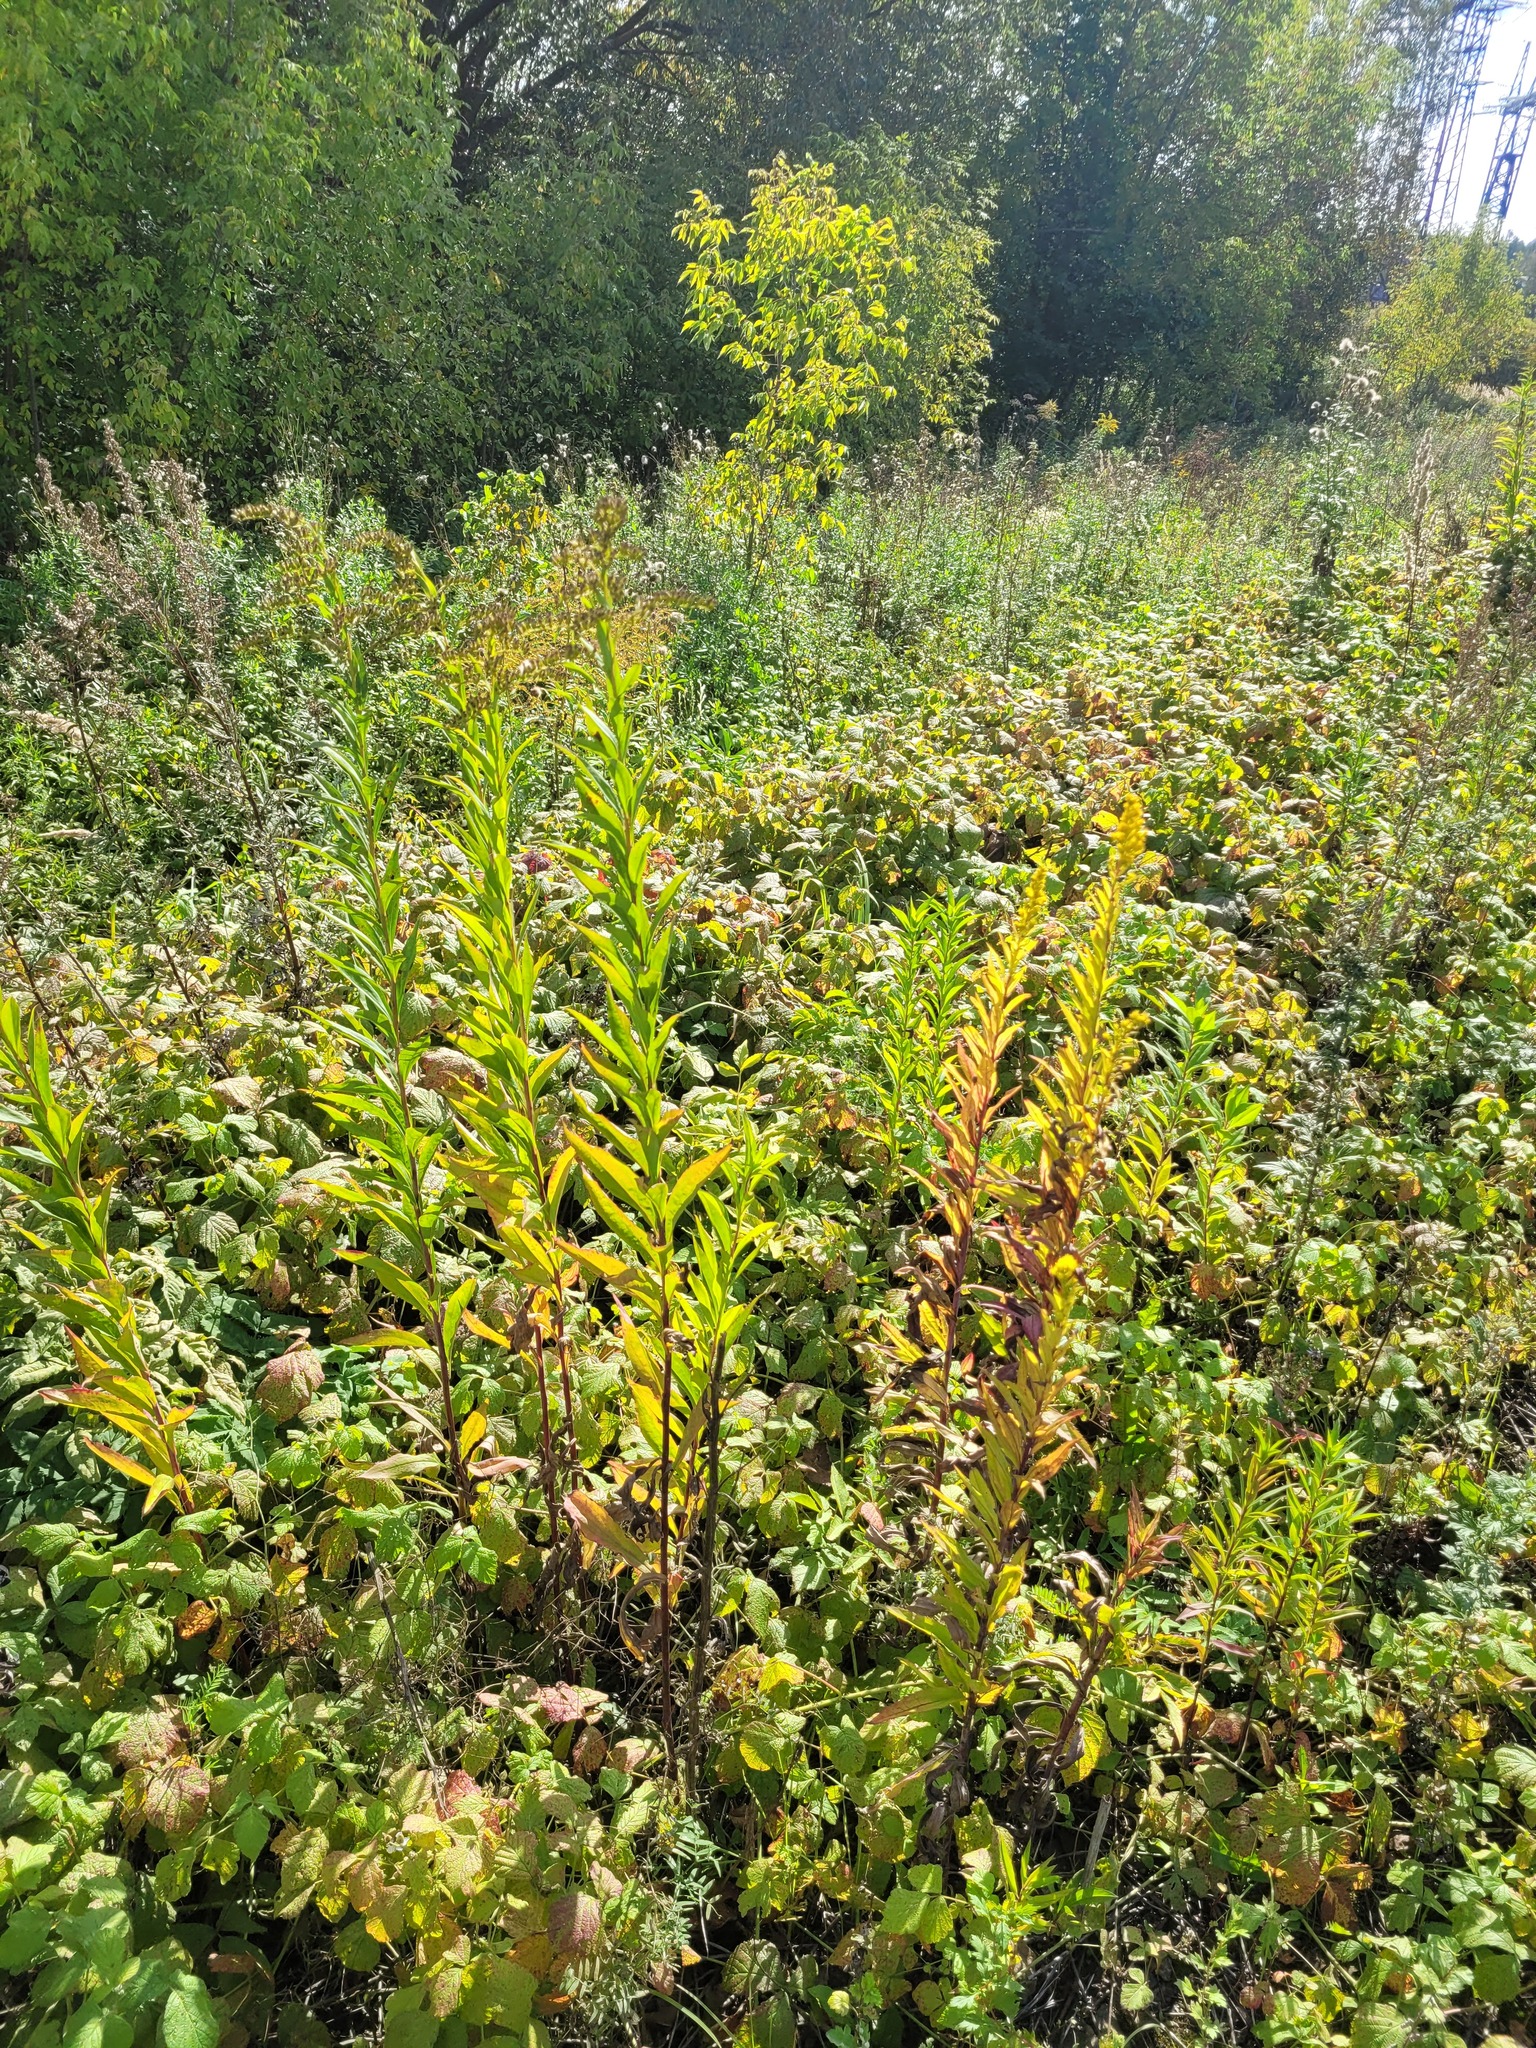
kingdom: Plantae
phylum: Tracheophyta
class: Magnoliopsida
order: Asterales
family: Asteraceae
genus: Solidago
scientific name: Solidago gigantea
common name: Giant goldenrod
